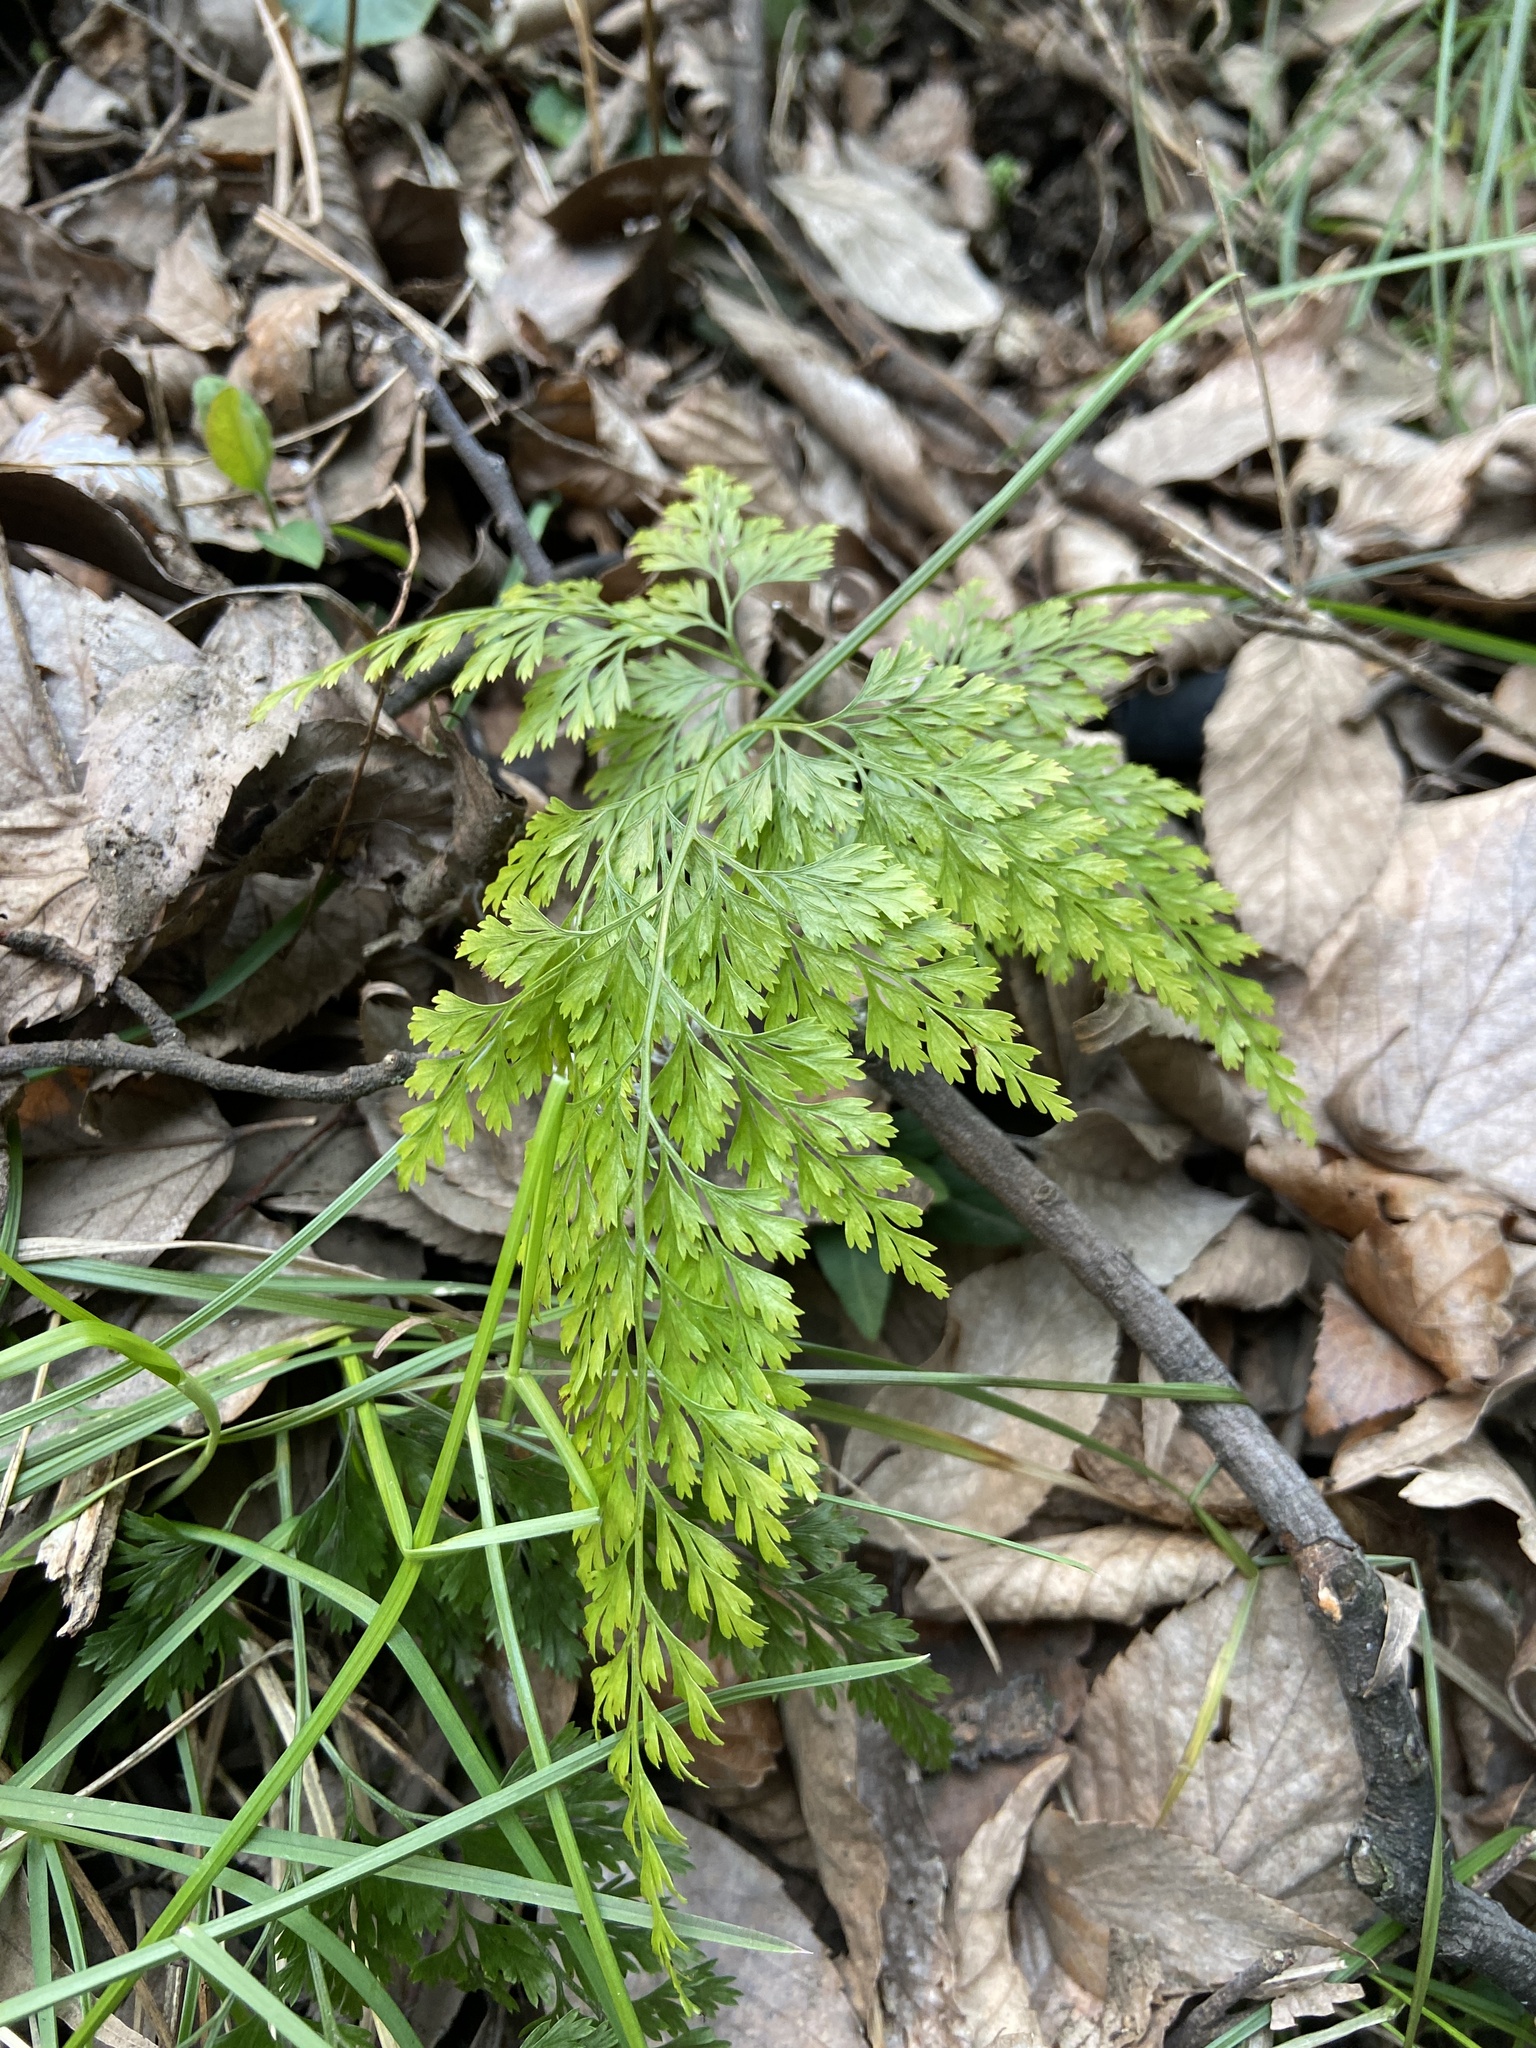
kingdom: Plantae
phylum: Tracheophyta
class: Polypodiopsida
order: Polypodiales
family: Pteridaceae
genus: Onychium
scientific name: Onychium japonicum
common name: Carrot fern
